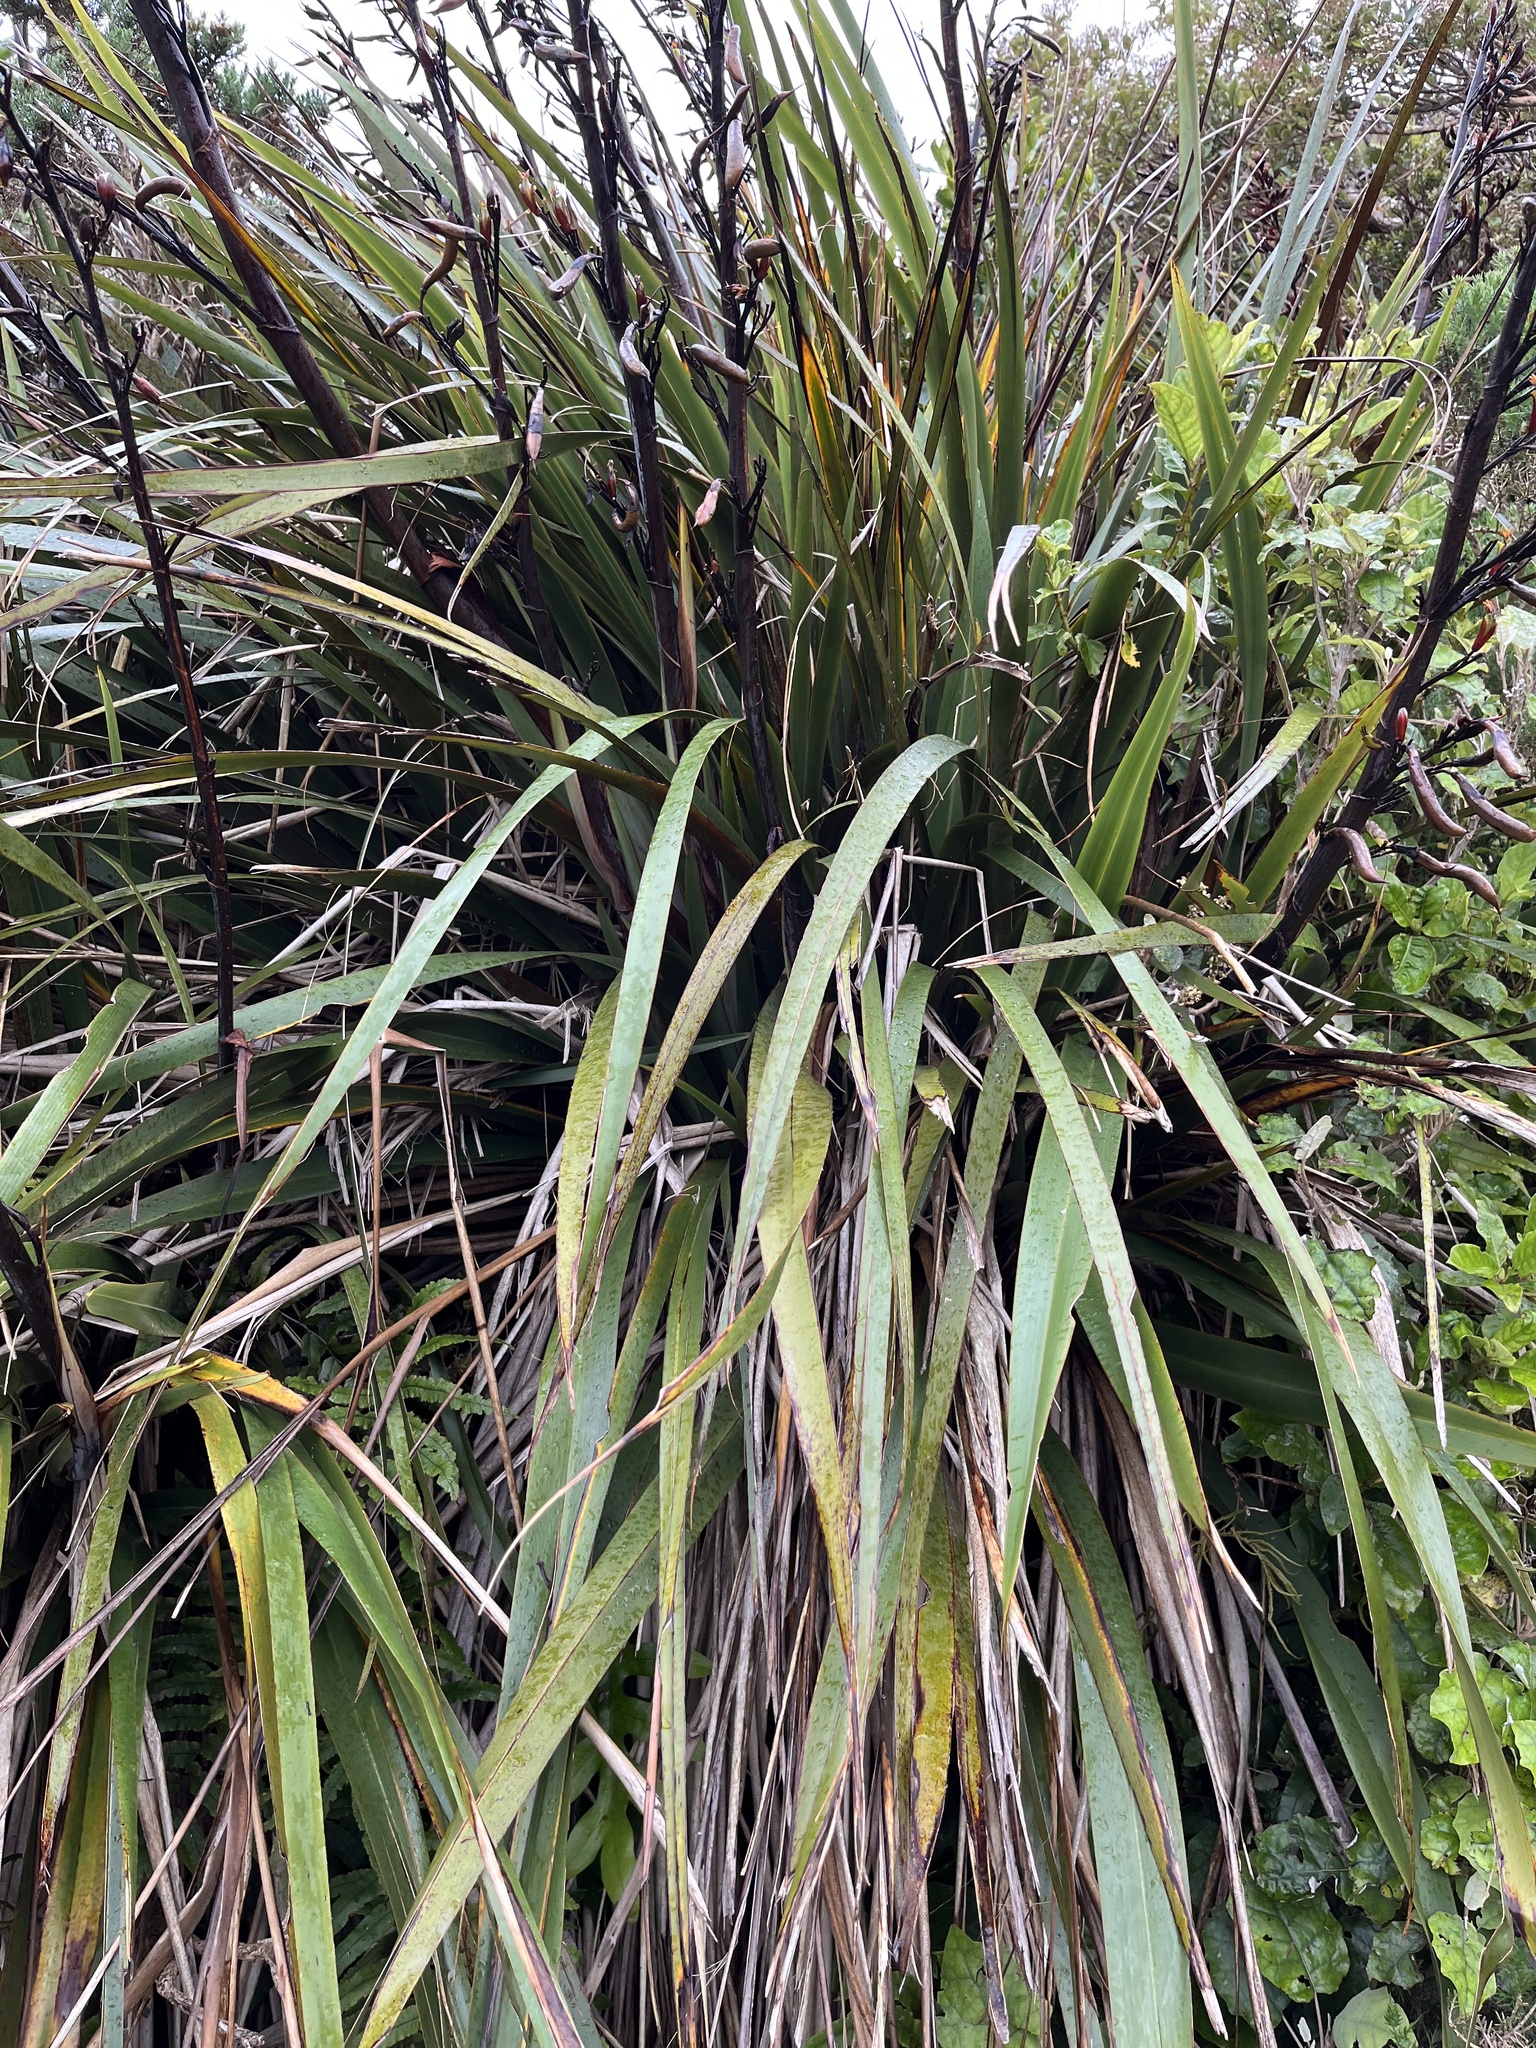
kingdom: Plantae
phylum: Tracheophyta
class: Liliopsida
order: Asparagales
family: Asphodelaceae
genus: Phormium
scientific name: Phormium colensoi
